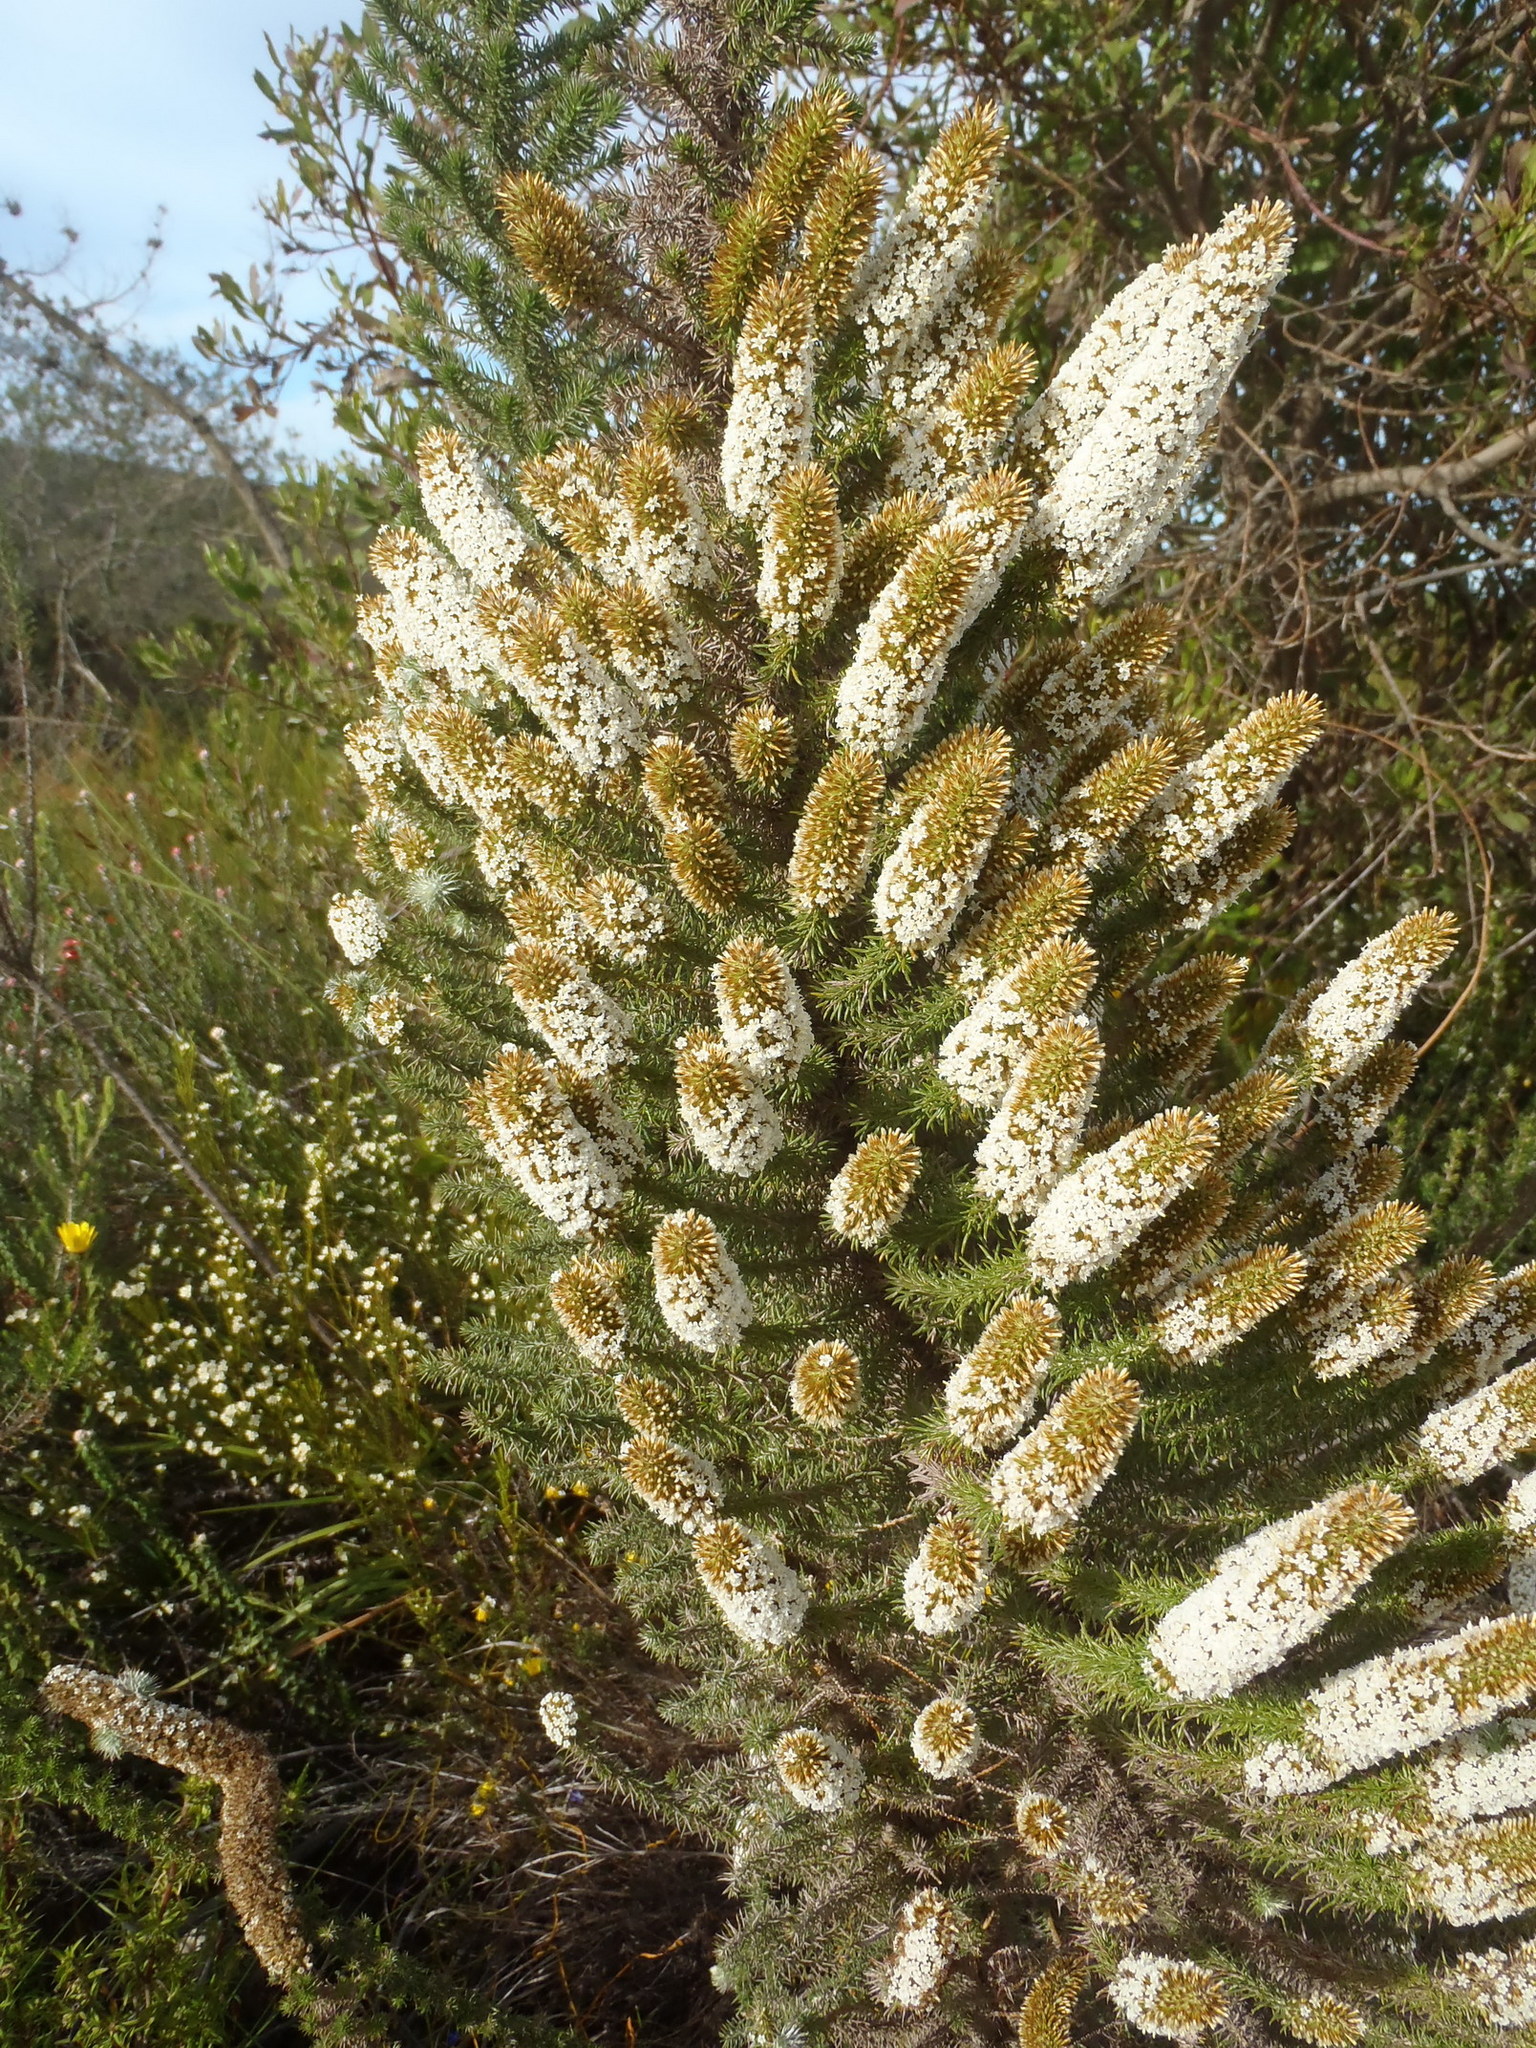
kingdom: Plantae
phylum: Tracheophyta
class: Magnoliopsida
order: Asterales
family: Asteraceae
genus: Stoebe
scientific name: Stoebe alopecuroides
